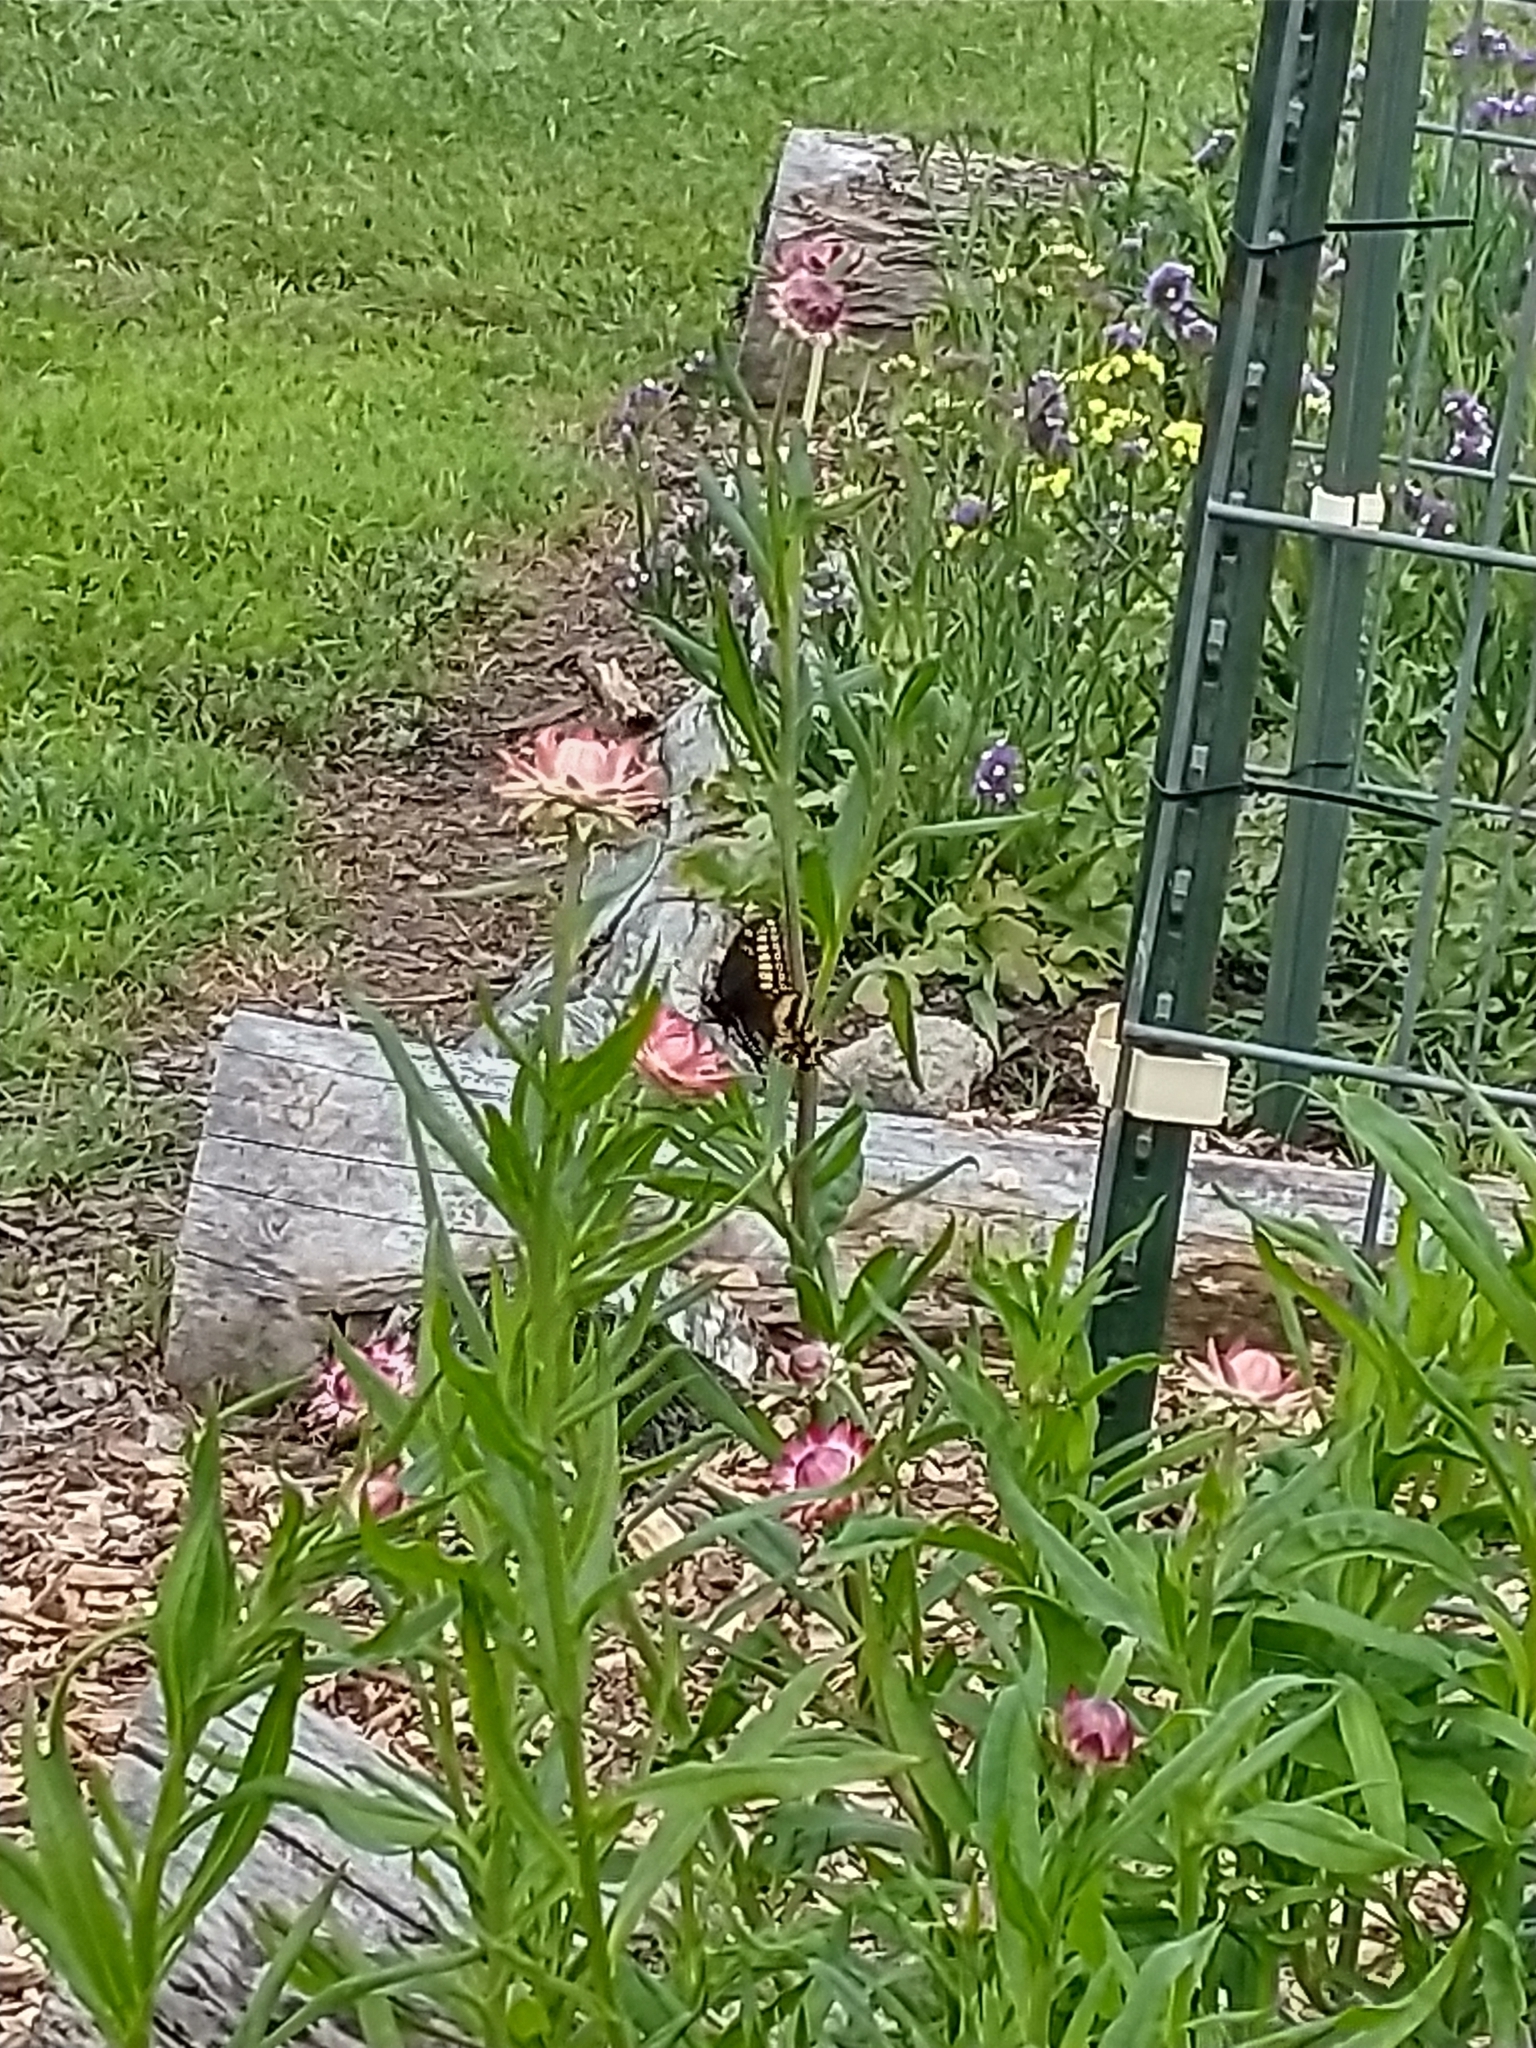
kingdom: Animalia
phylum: Arthropoda
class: Insecta
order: Lepidoptera
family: Papilionidae
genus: Papilio
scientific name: Papilio polyxenes
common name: Black swallowtail
